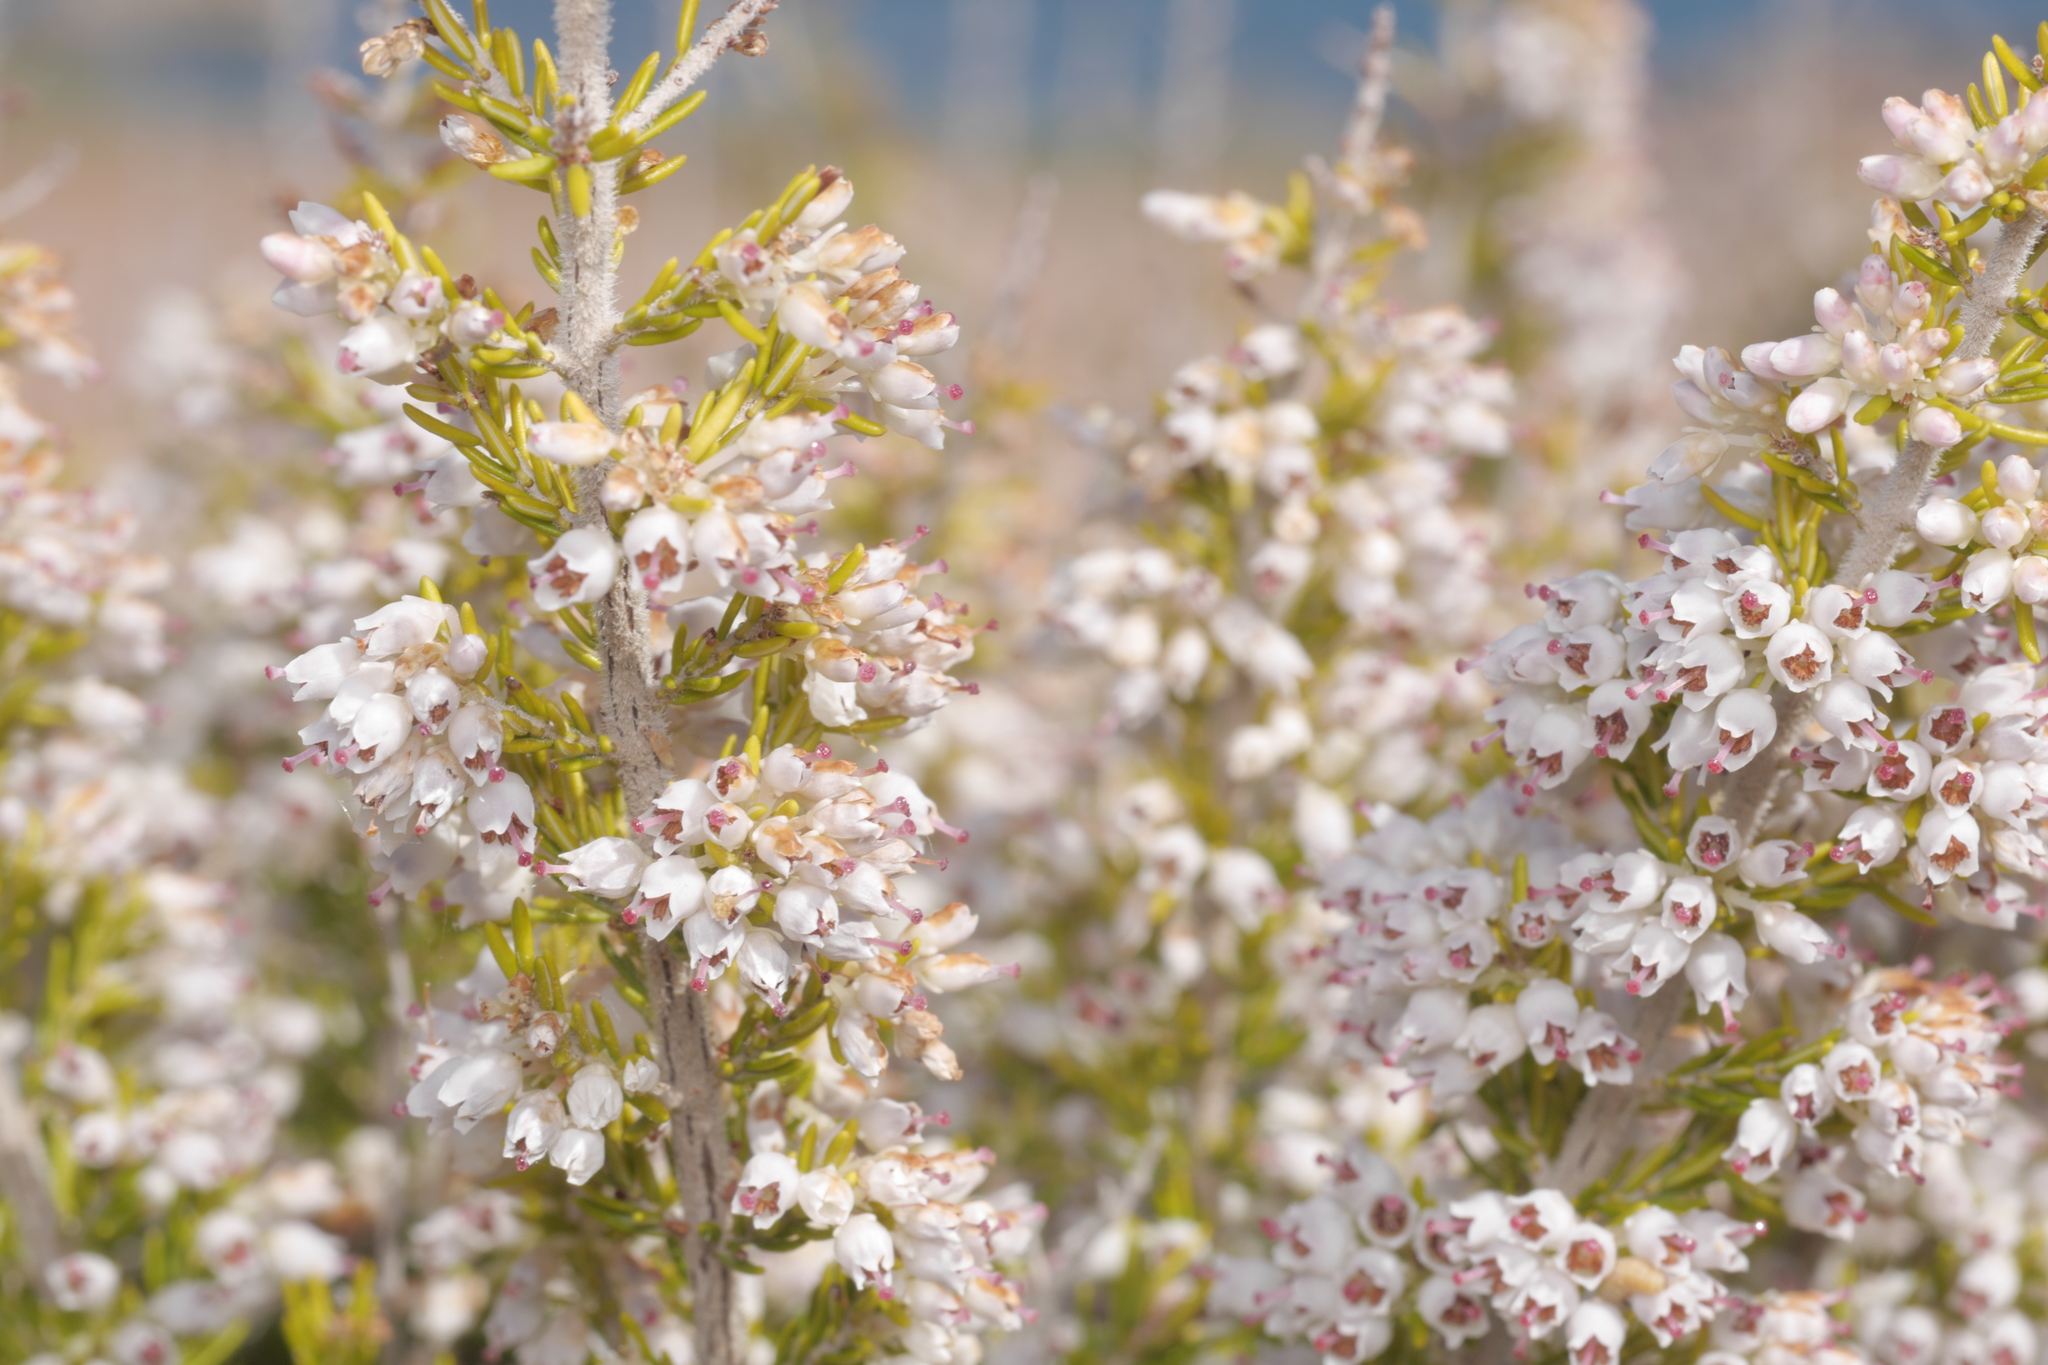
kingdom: Plantae
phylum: Tracheophyta
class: Magnoliopsida
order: Ericales
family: Ericaceae
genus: Erica
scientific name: Erica arborea
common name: Tree heath
